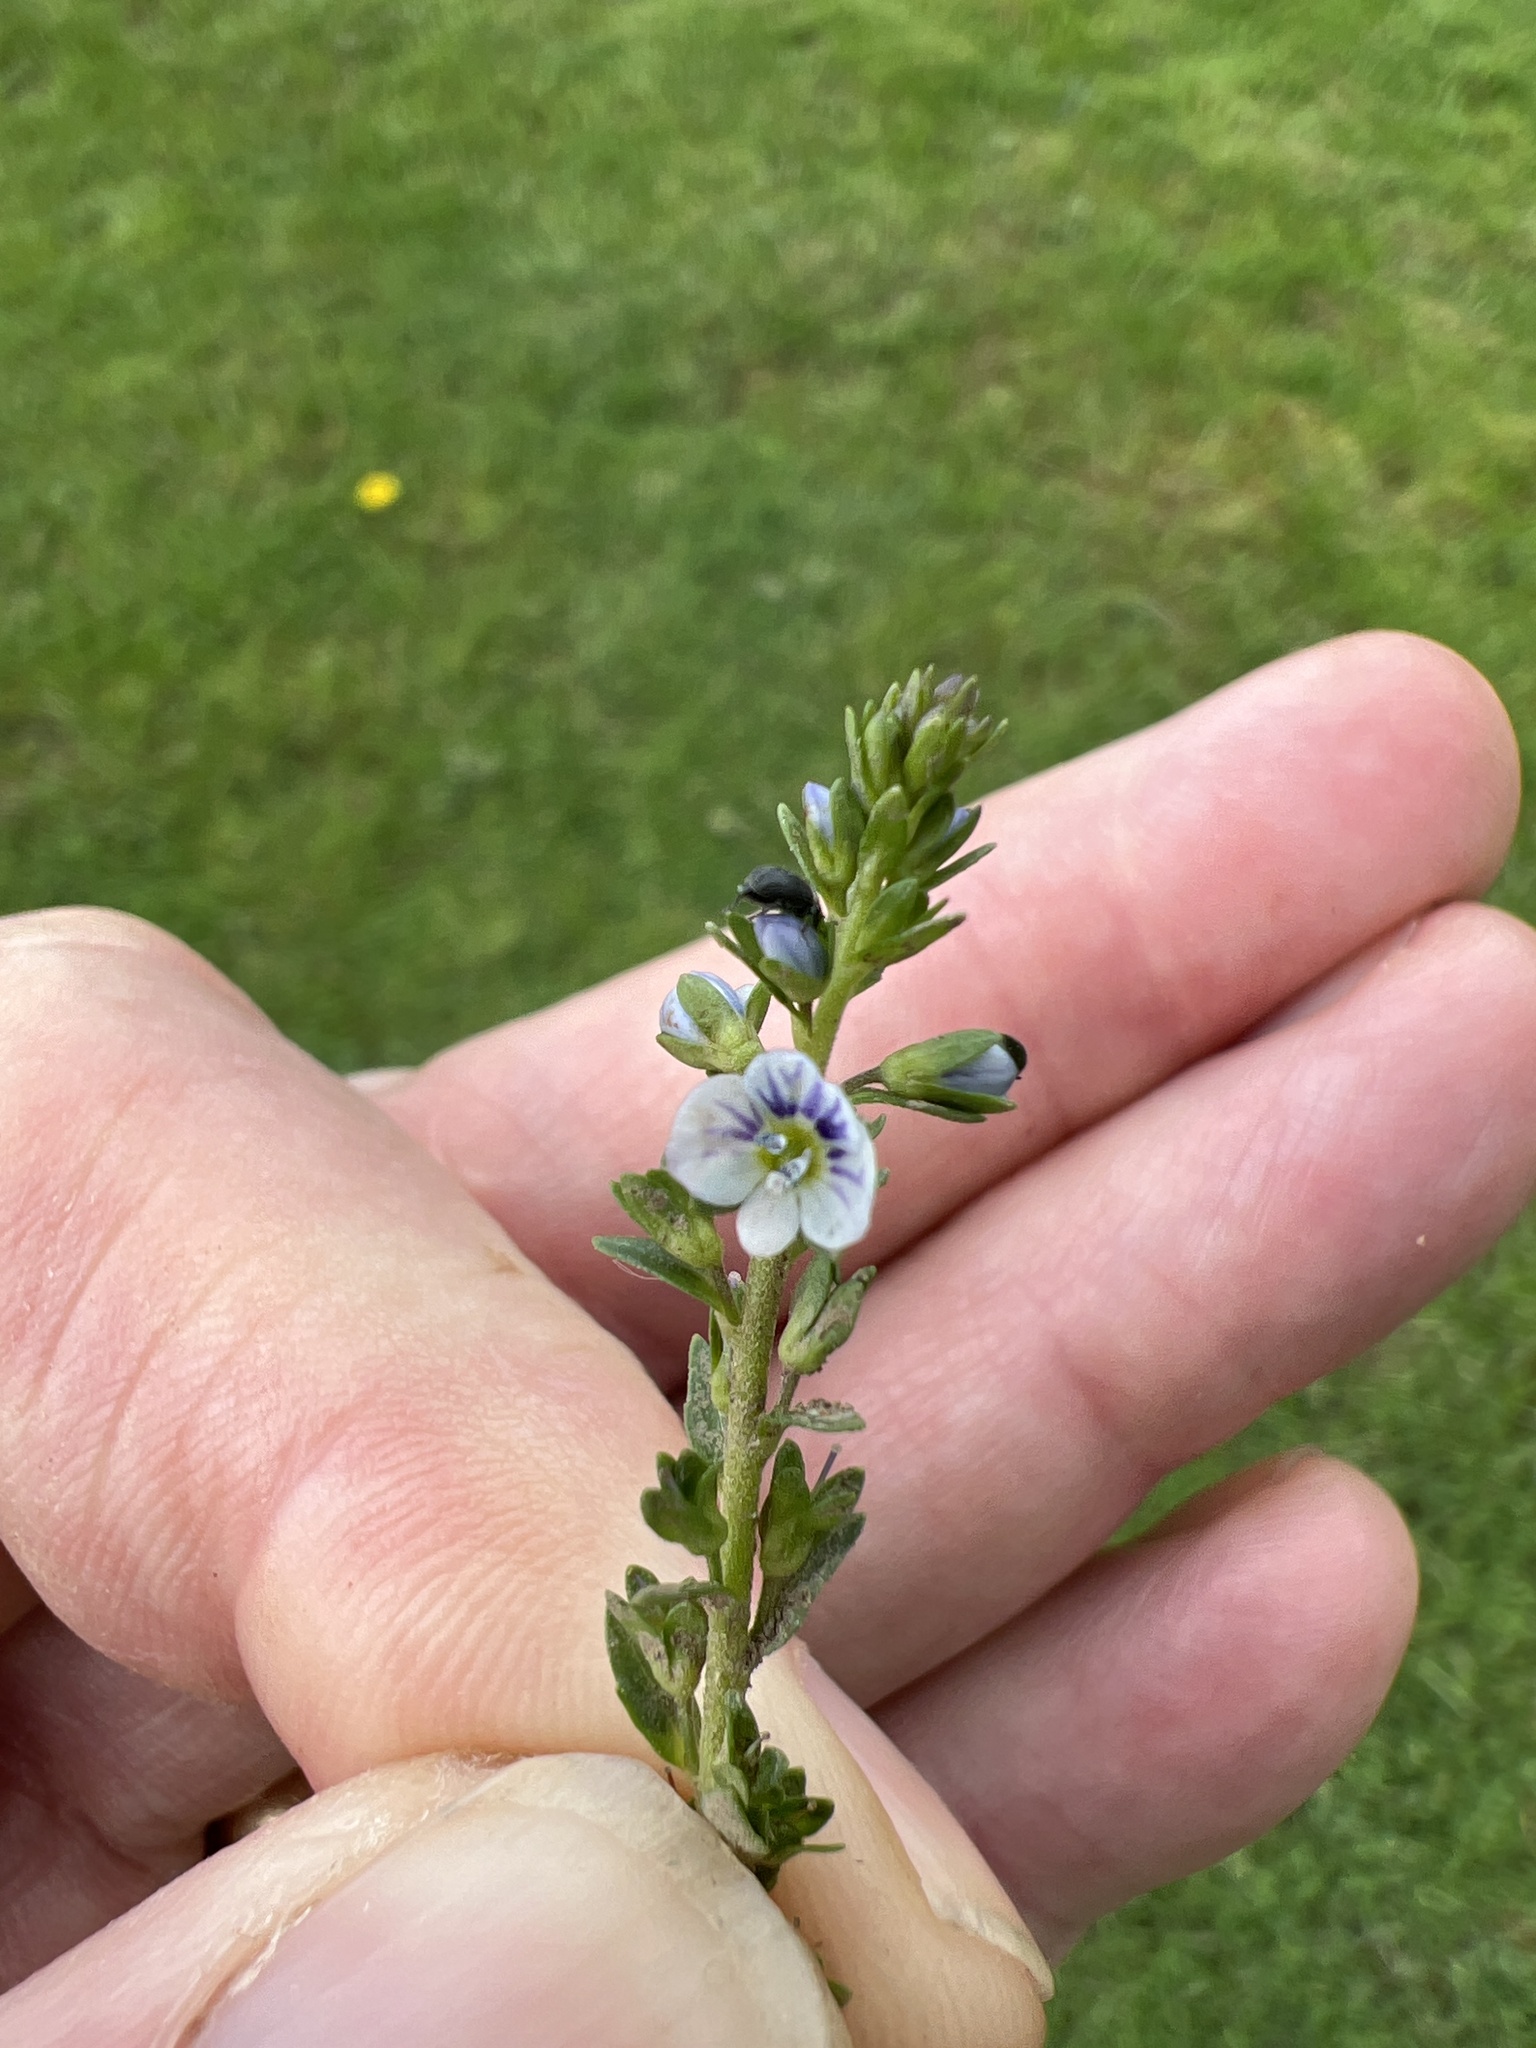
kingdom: Plantae
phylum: Tracheophyta
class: Magnoliopsida
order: Lamiales
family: Plantaginaceae
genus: Veronica
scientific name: Veronica serpyllifolia
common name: Thyme-leaved speedwell
